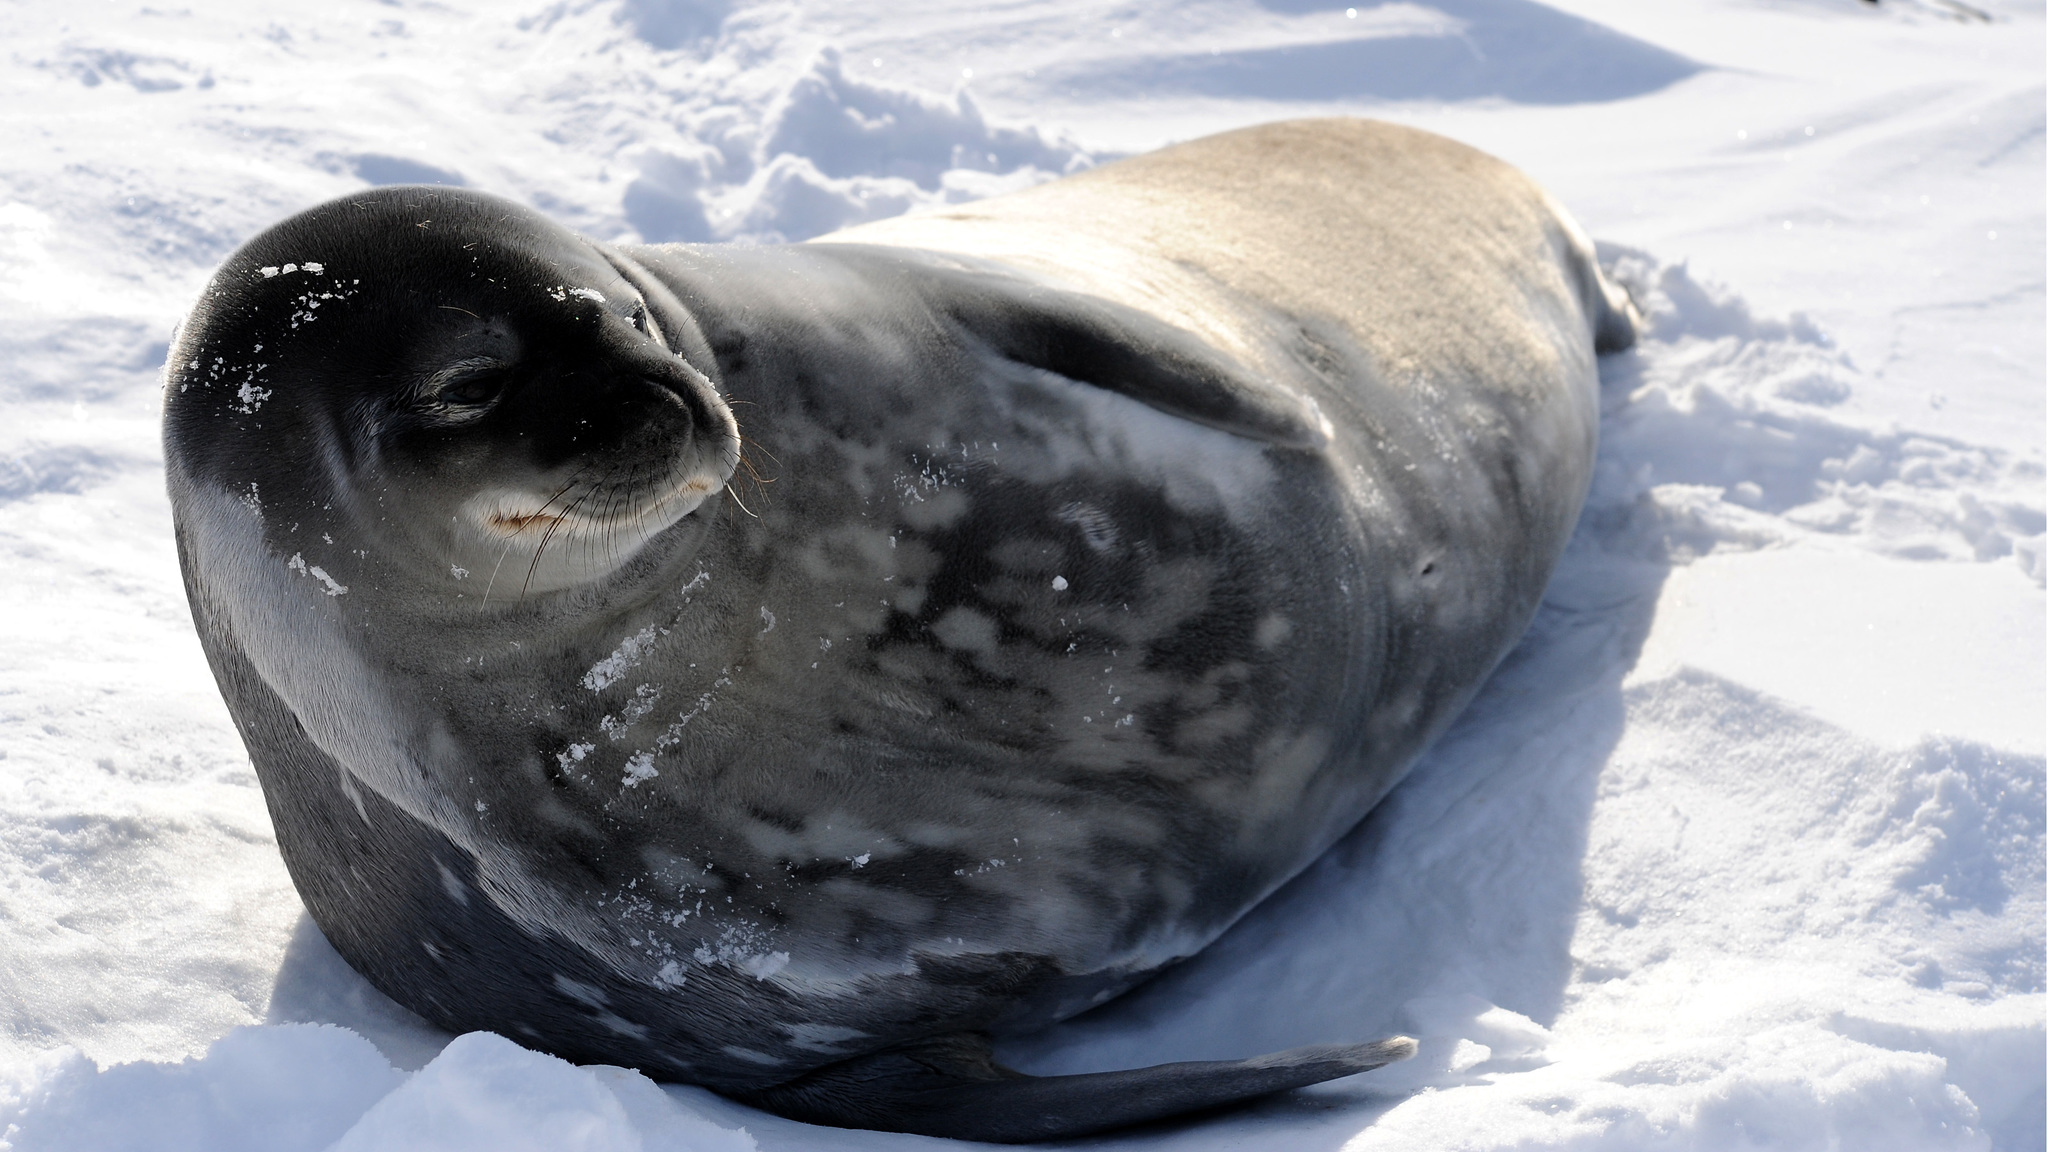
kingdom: Animalia
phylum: Chordata
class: Mammalia
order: Carnivora
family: Phocidae
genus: Leptonychotes
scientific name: Leptonychotes weddellii
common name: Weddell seal
